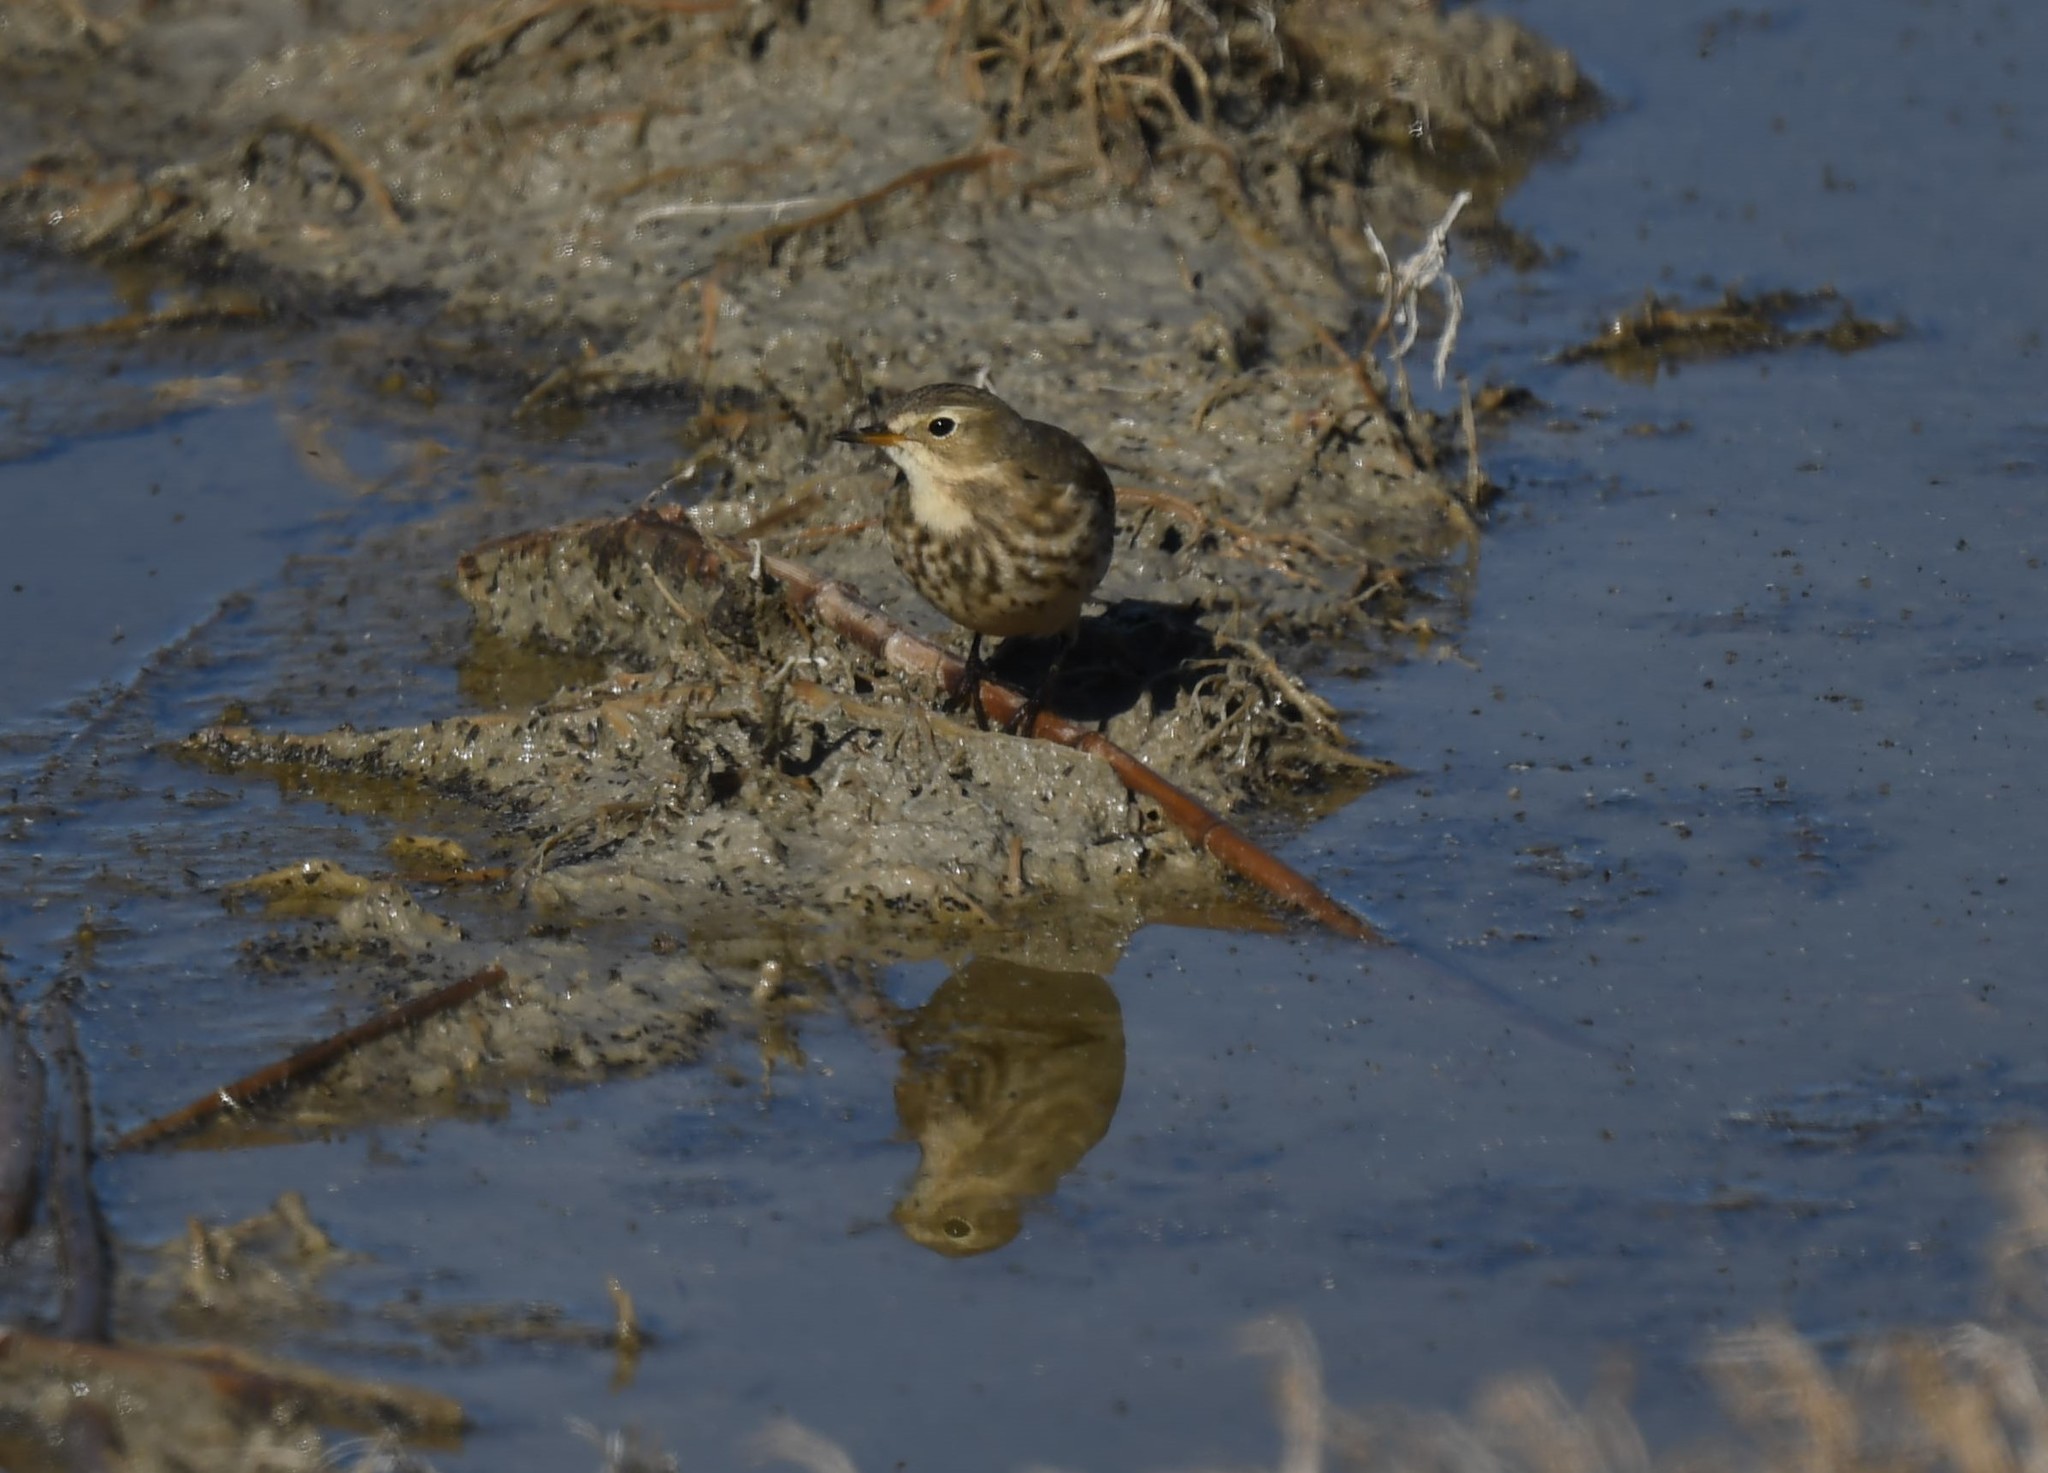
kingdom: Animalia
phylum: Chordata
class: Aves
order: Passeriformes
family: Motacillidae
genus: Anthus
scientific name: Anthus rubescens
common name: Buff-bellied pipit
